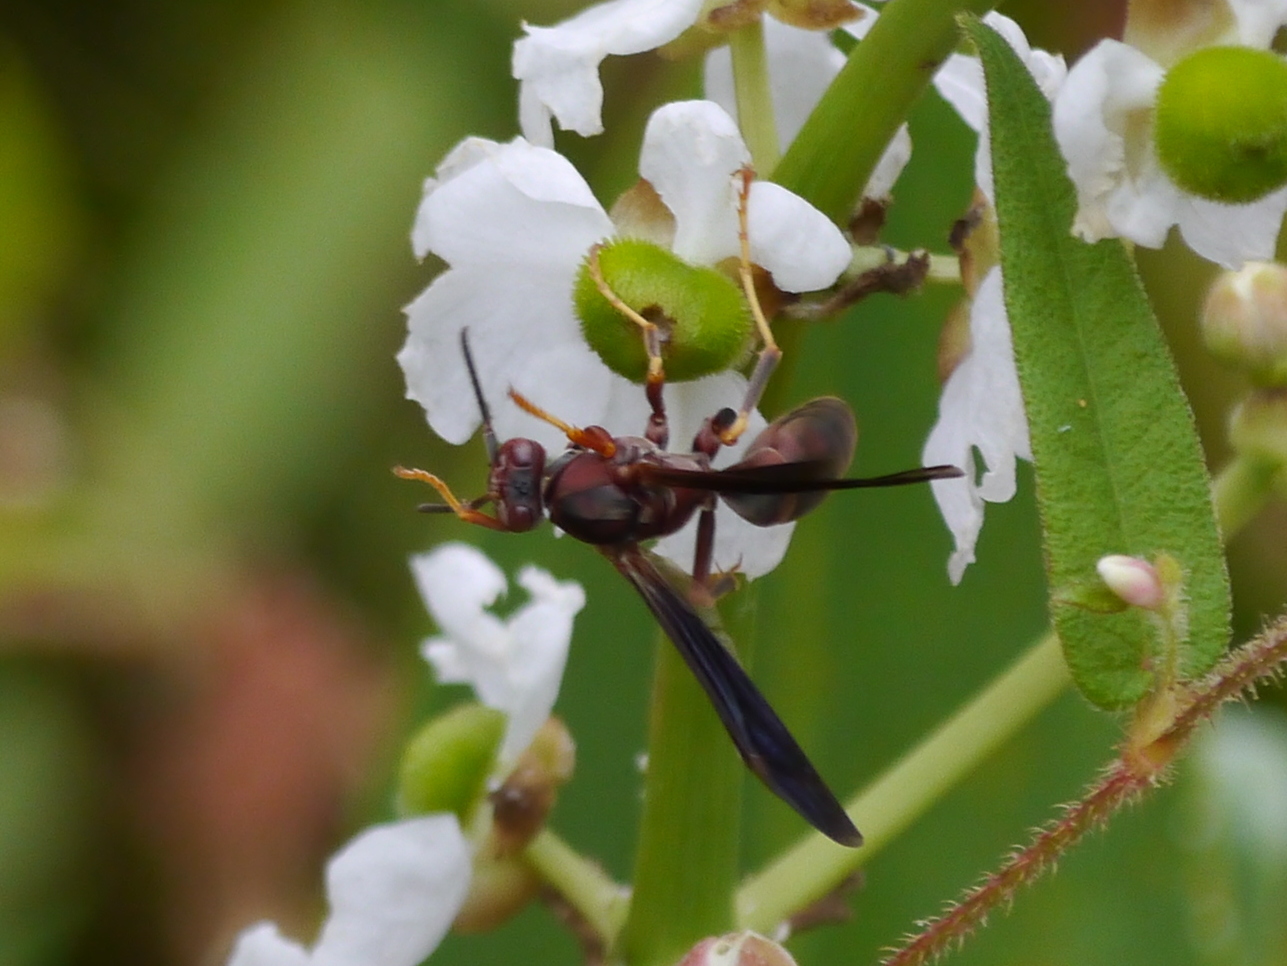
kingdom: Animalia
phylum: Arthropoda
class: Insecta
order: Hymenoptera
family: Eumenidae
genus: Polistes
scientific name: Polistes metricus
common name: Metric paper wasp
